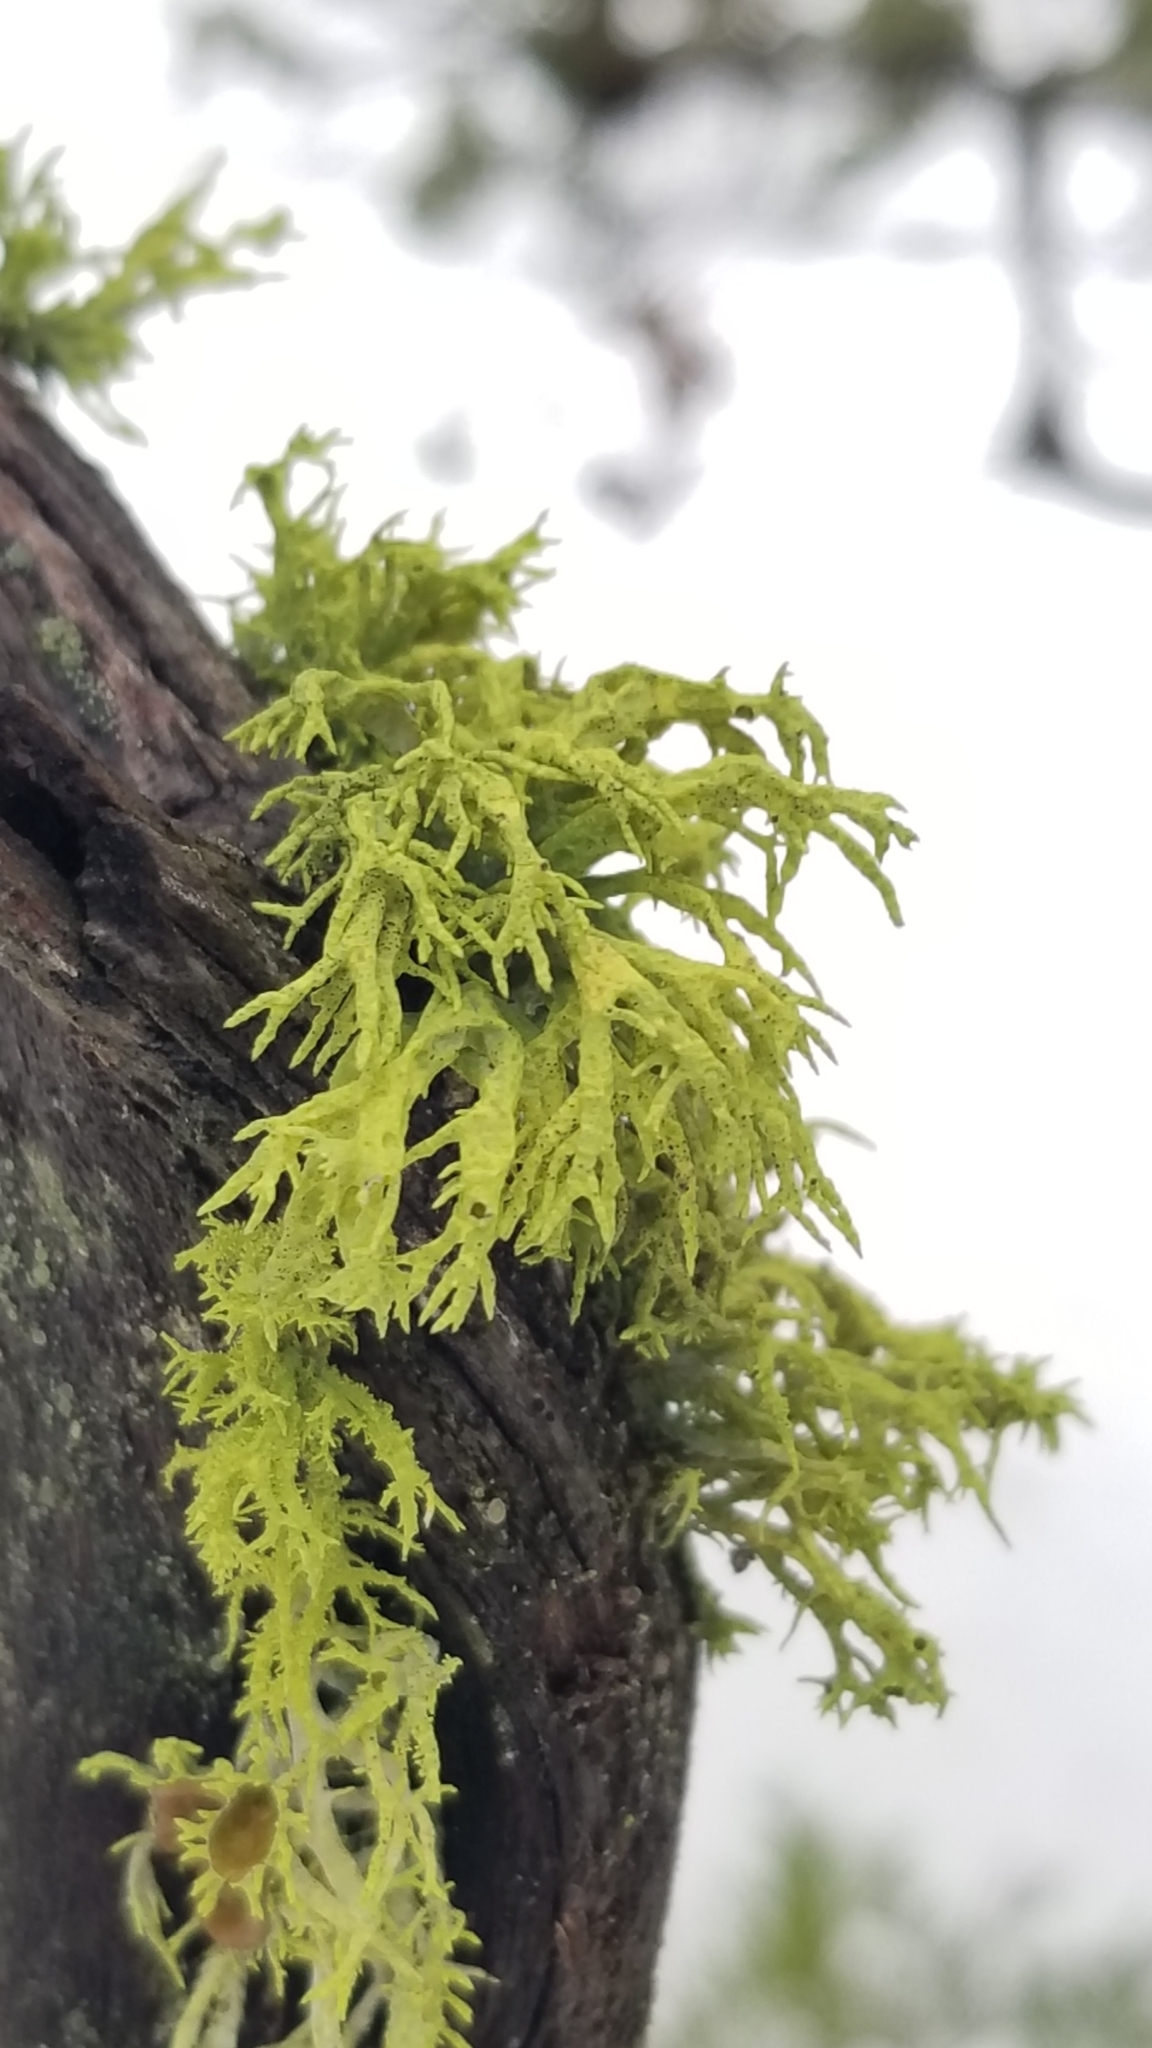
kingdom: Fungi
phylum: Ascomycota
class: Lecanoromycetes
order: Lecanorales
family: Parmeliaceae
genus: Letharia
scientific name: Letharia columbiana
